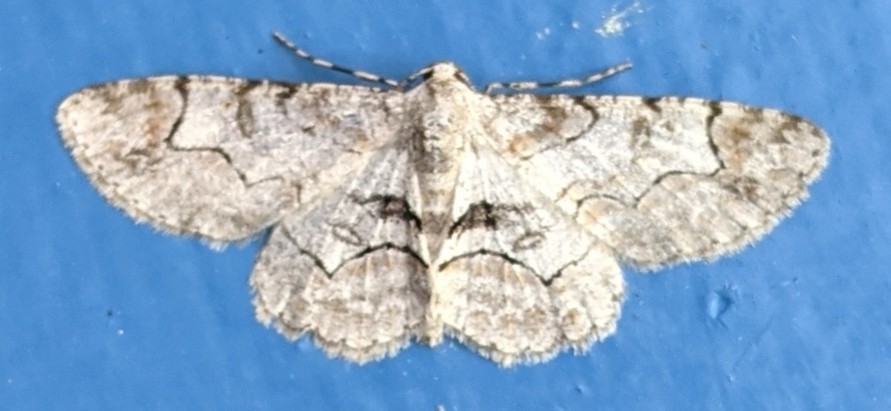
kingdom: Animalia
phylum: Arthropoda
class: Insecta
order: Lepidoptera
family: Geometridae
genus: Iridopsis
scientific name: Iridopsis larvaria
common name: Bent-line gray
